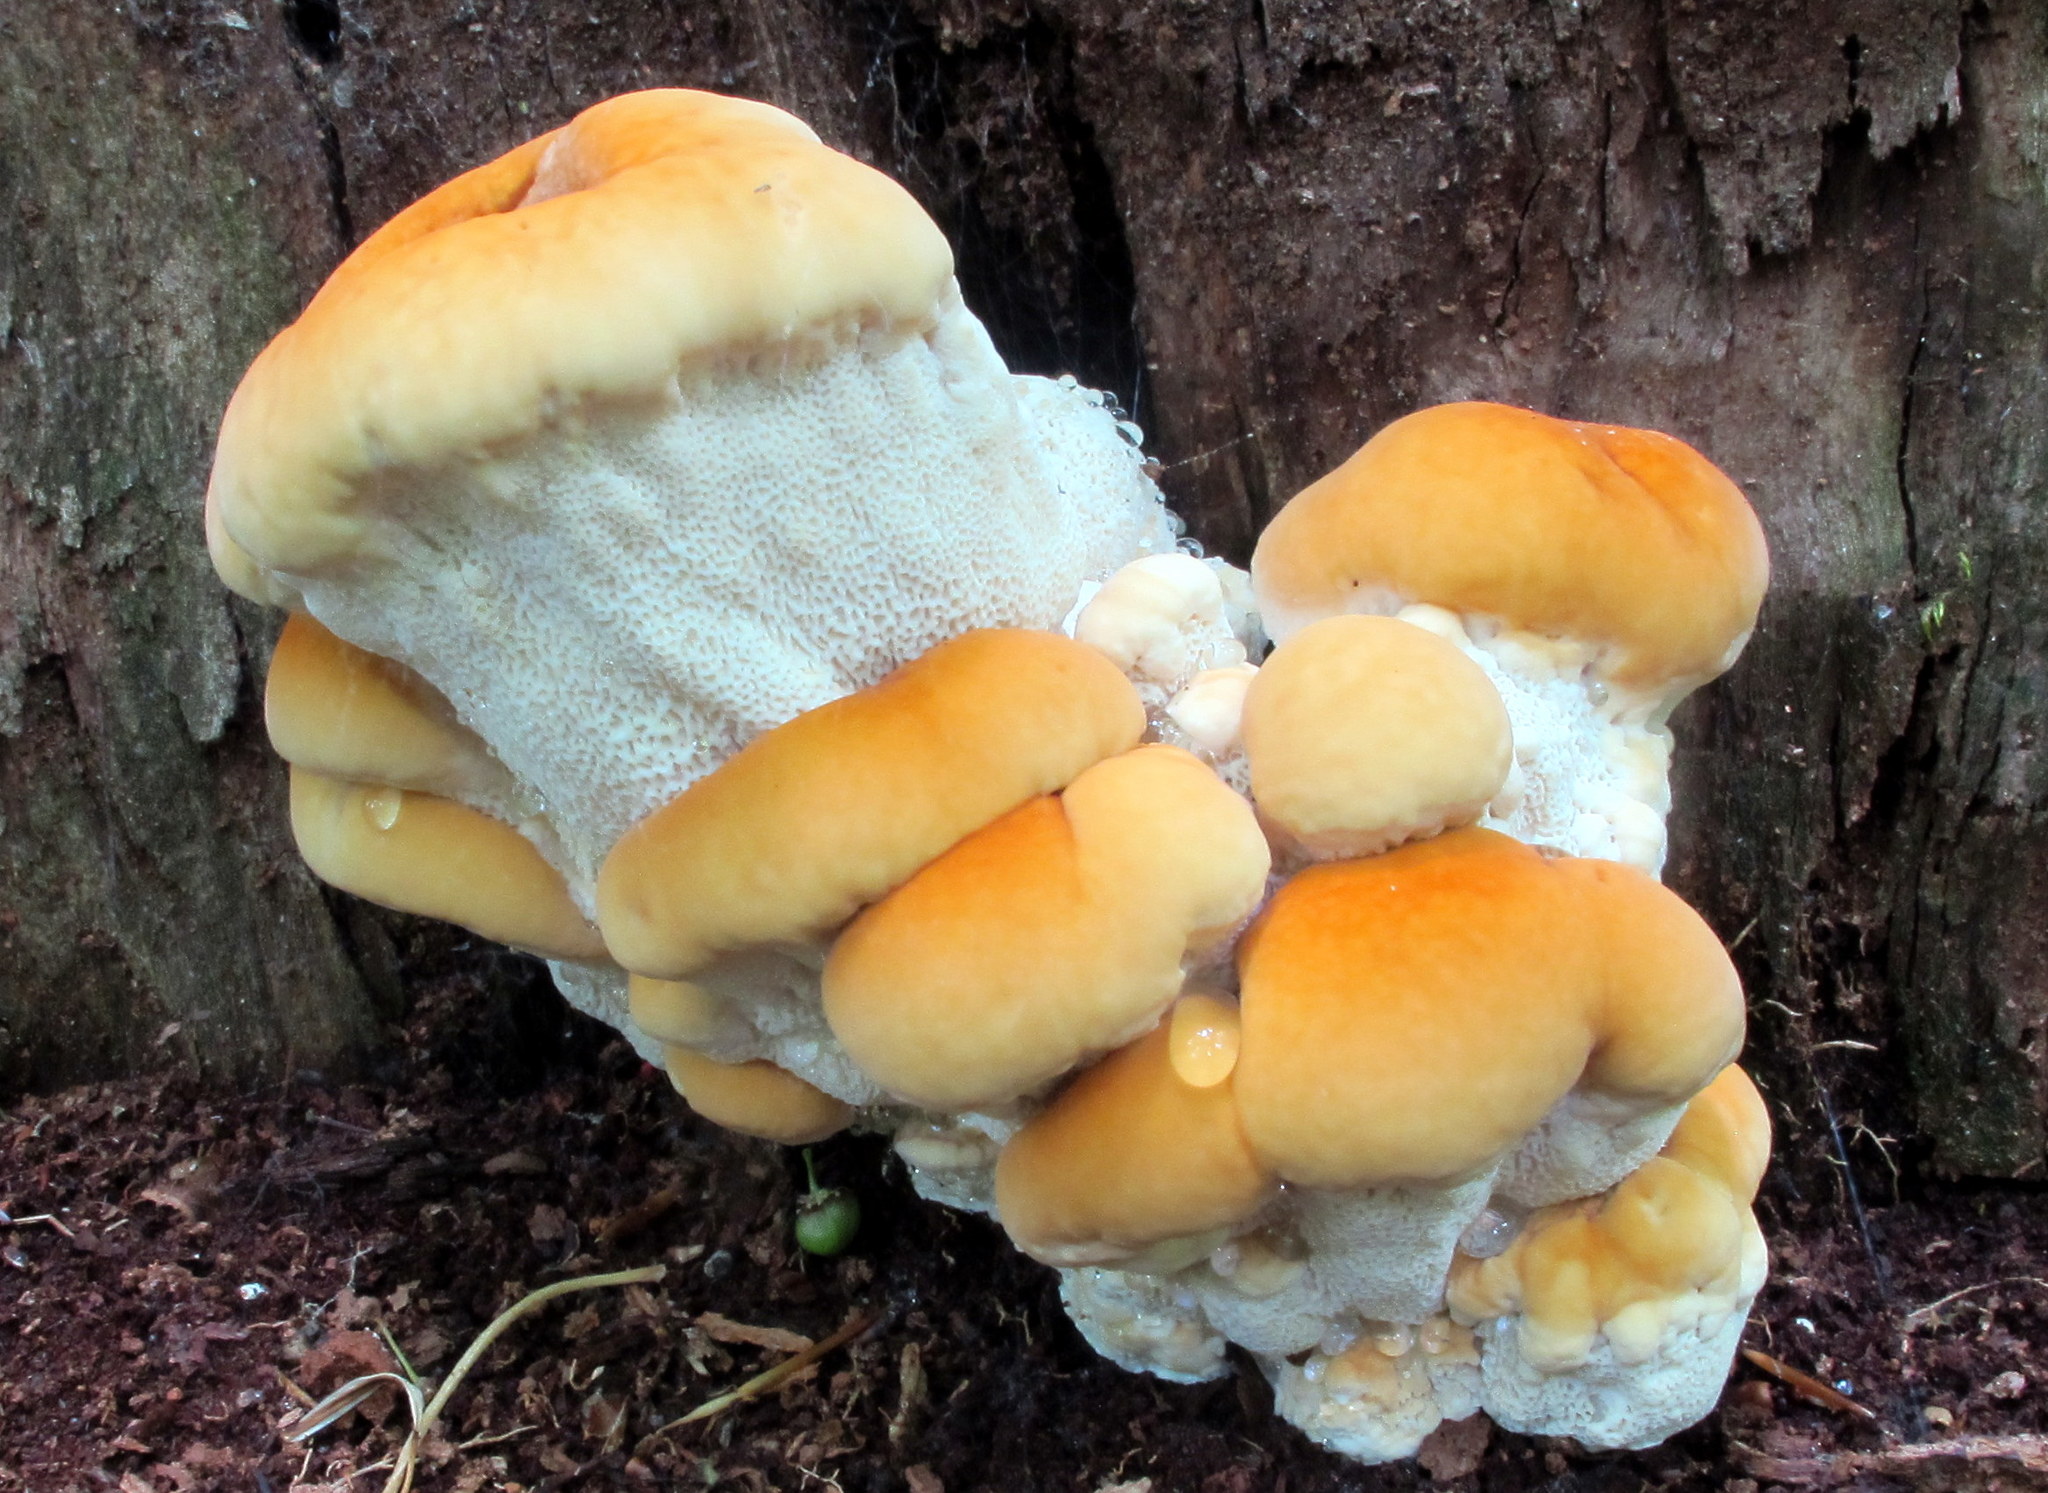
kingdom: Fungi
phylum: Basidiomycota
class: Agaricomycetes
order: Russulales
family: Bondarzewiaceae
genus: Bondarzewia
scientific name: Bondarzewia berkeleyi
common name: Berkeley's polypore
